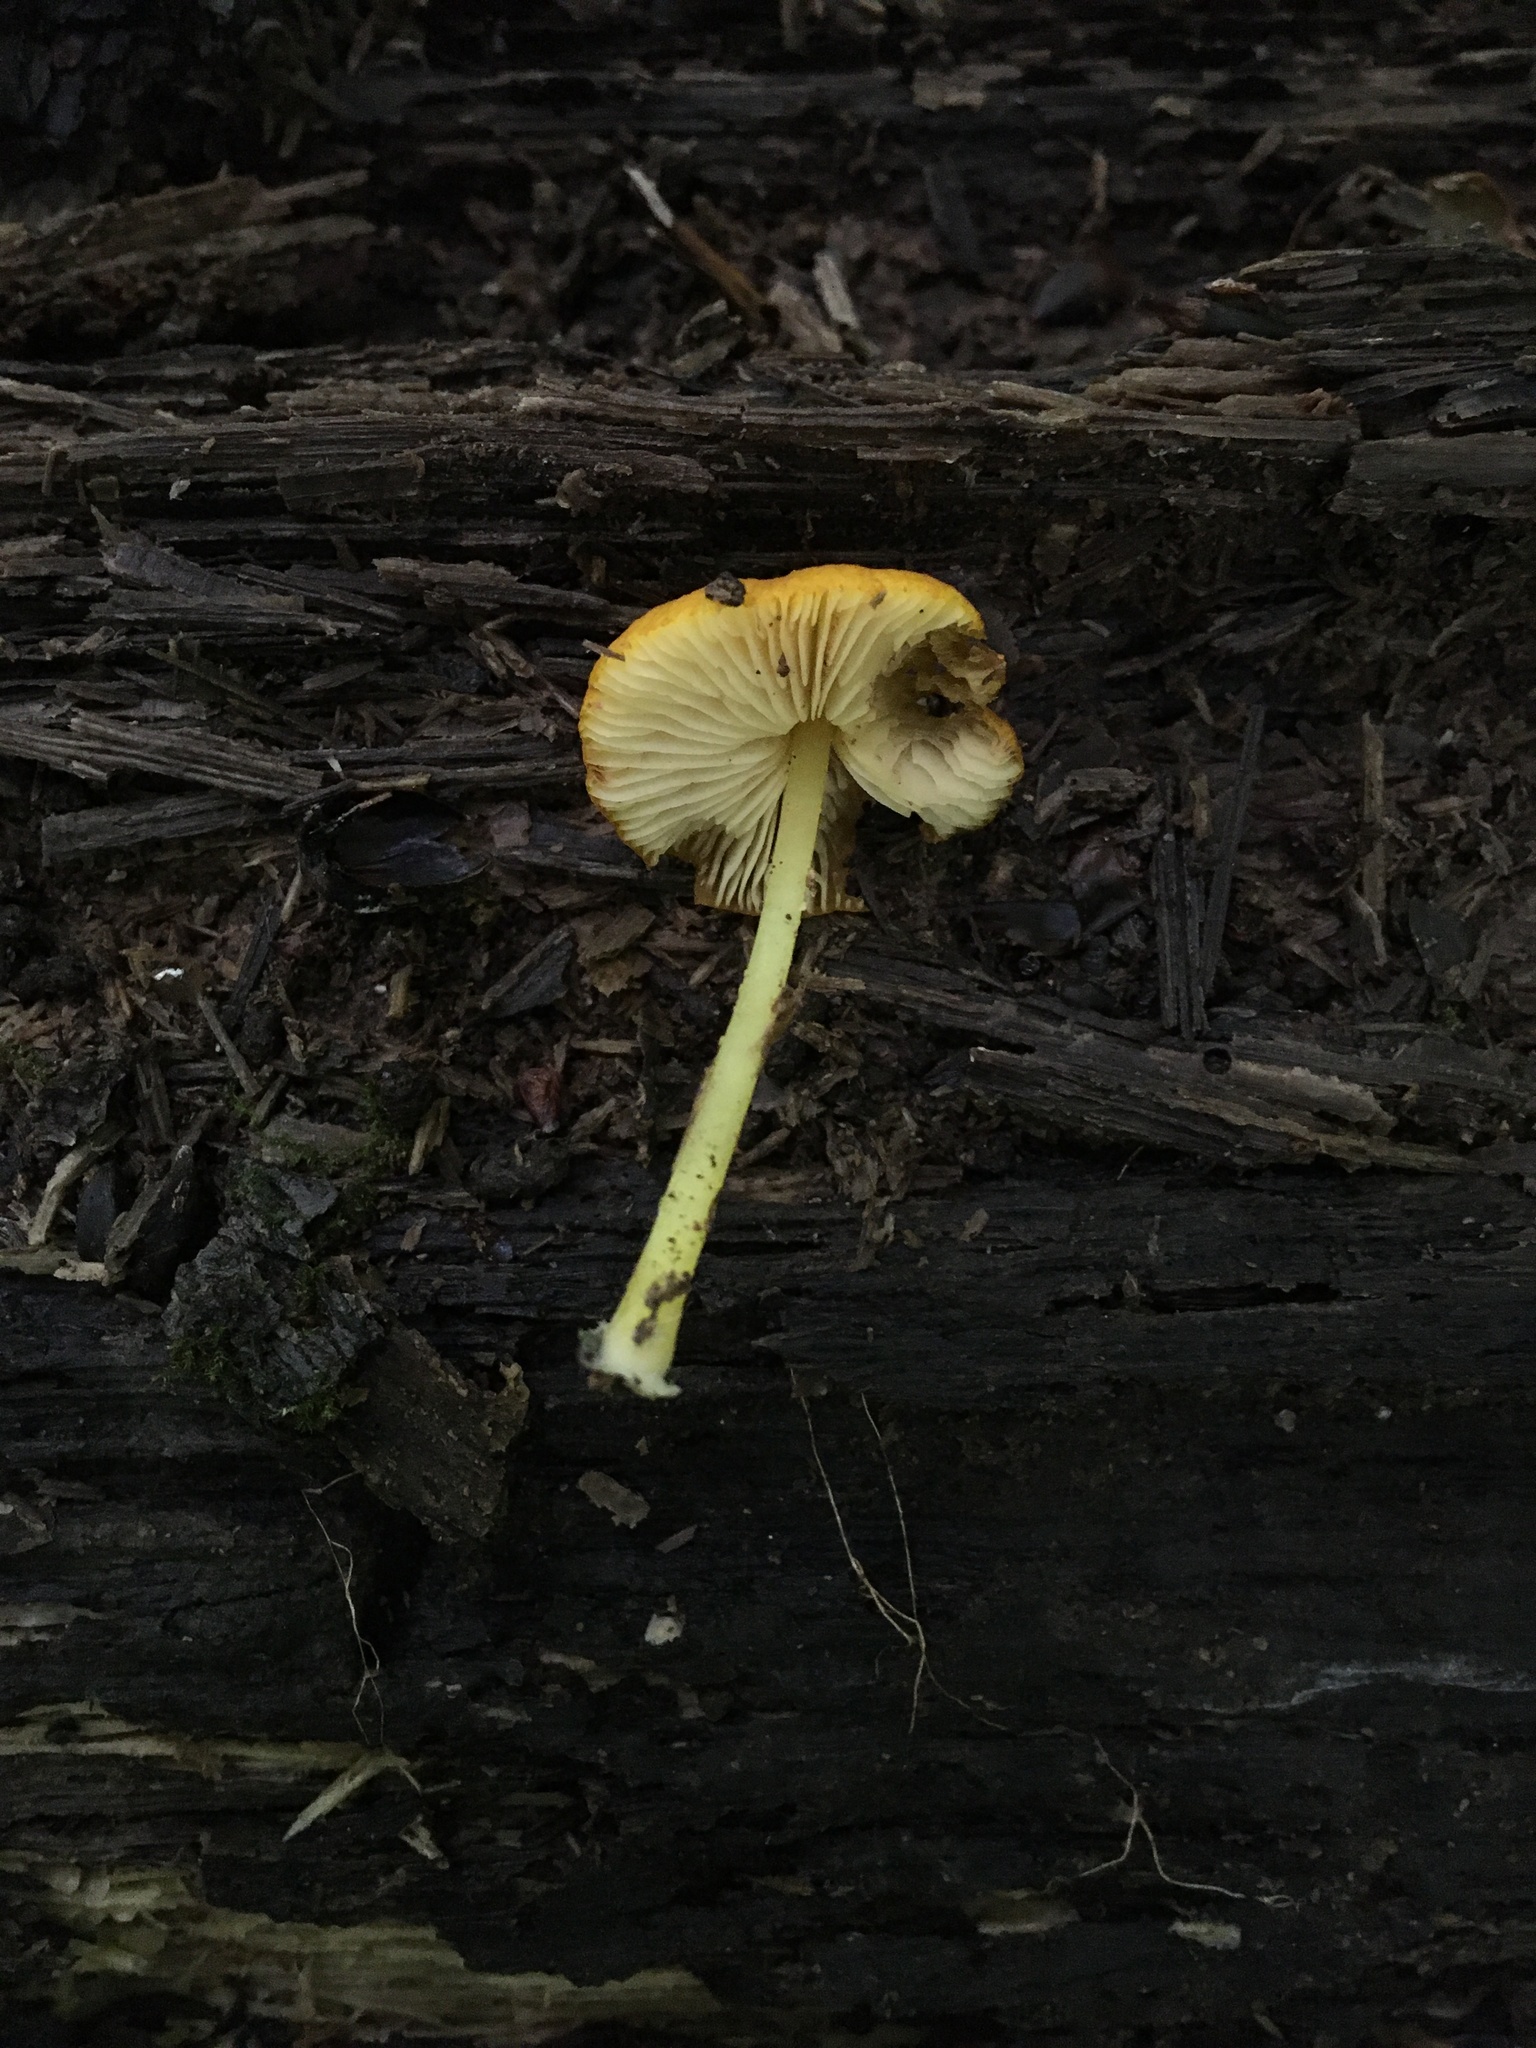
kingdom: Fungi
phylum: Basidiomycota
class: Agaricomycetes
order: Agaricales
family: Pluteaceae
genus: Pluteus
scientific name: Pluteus chrysophlebius
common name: Yellow deer mushroom
